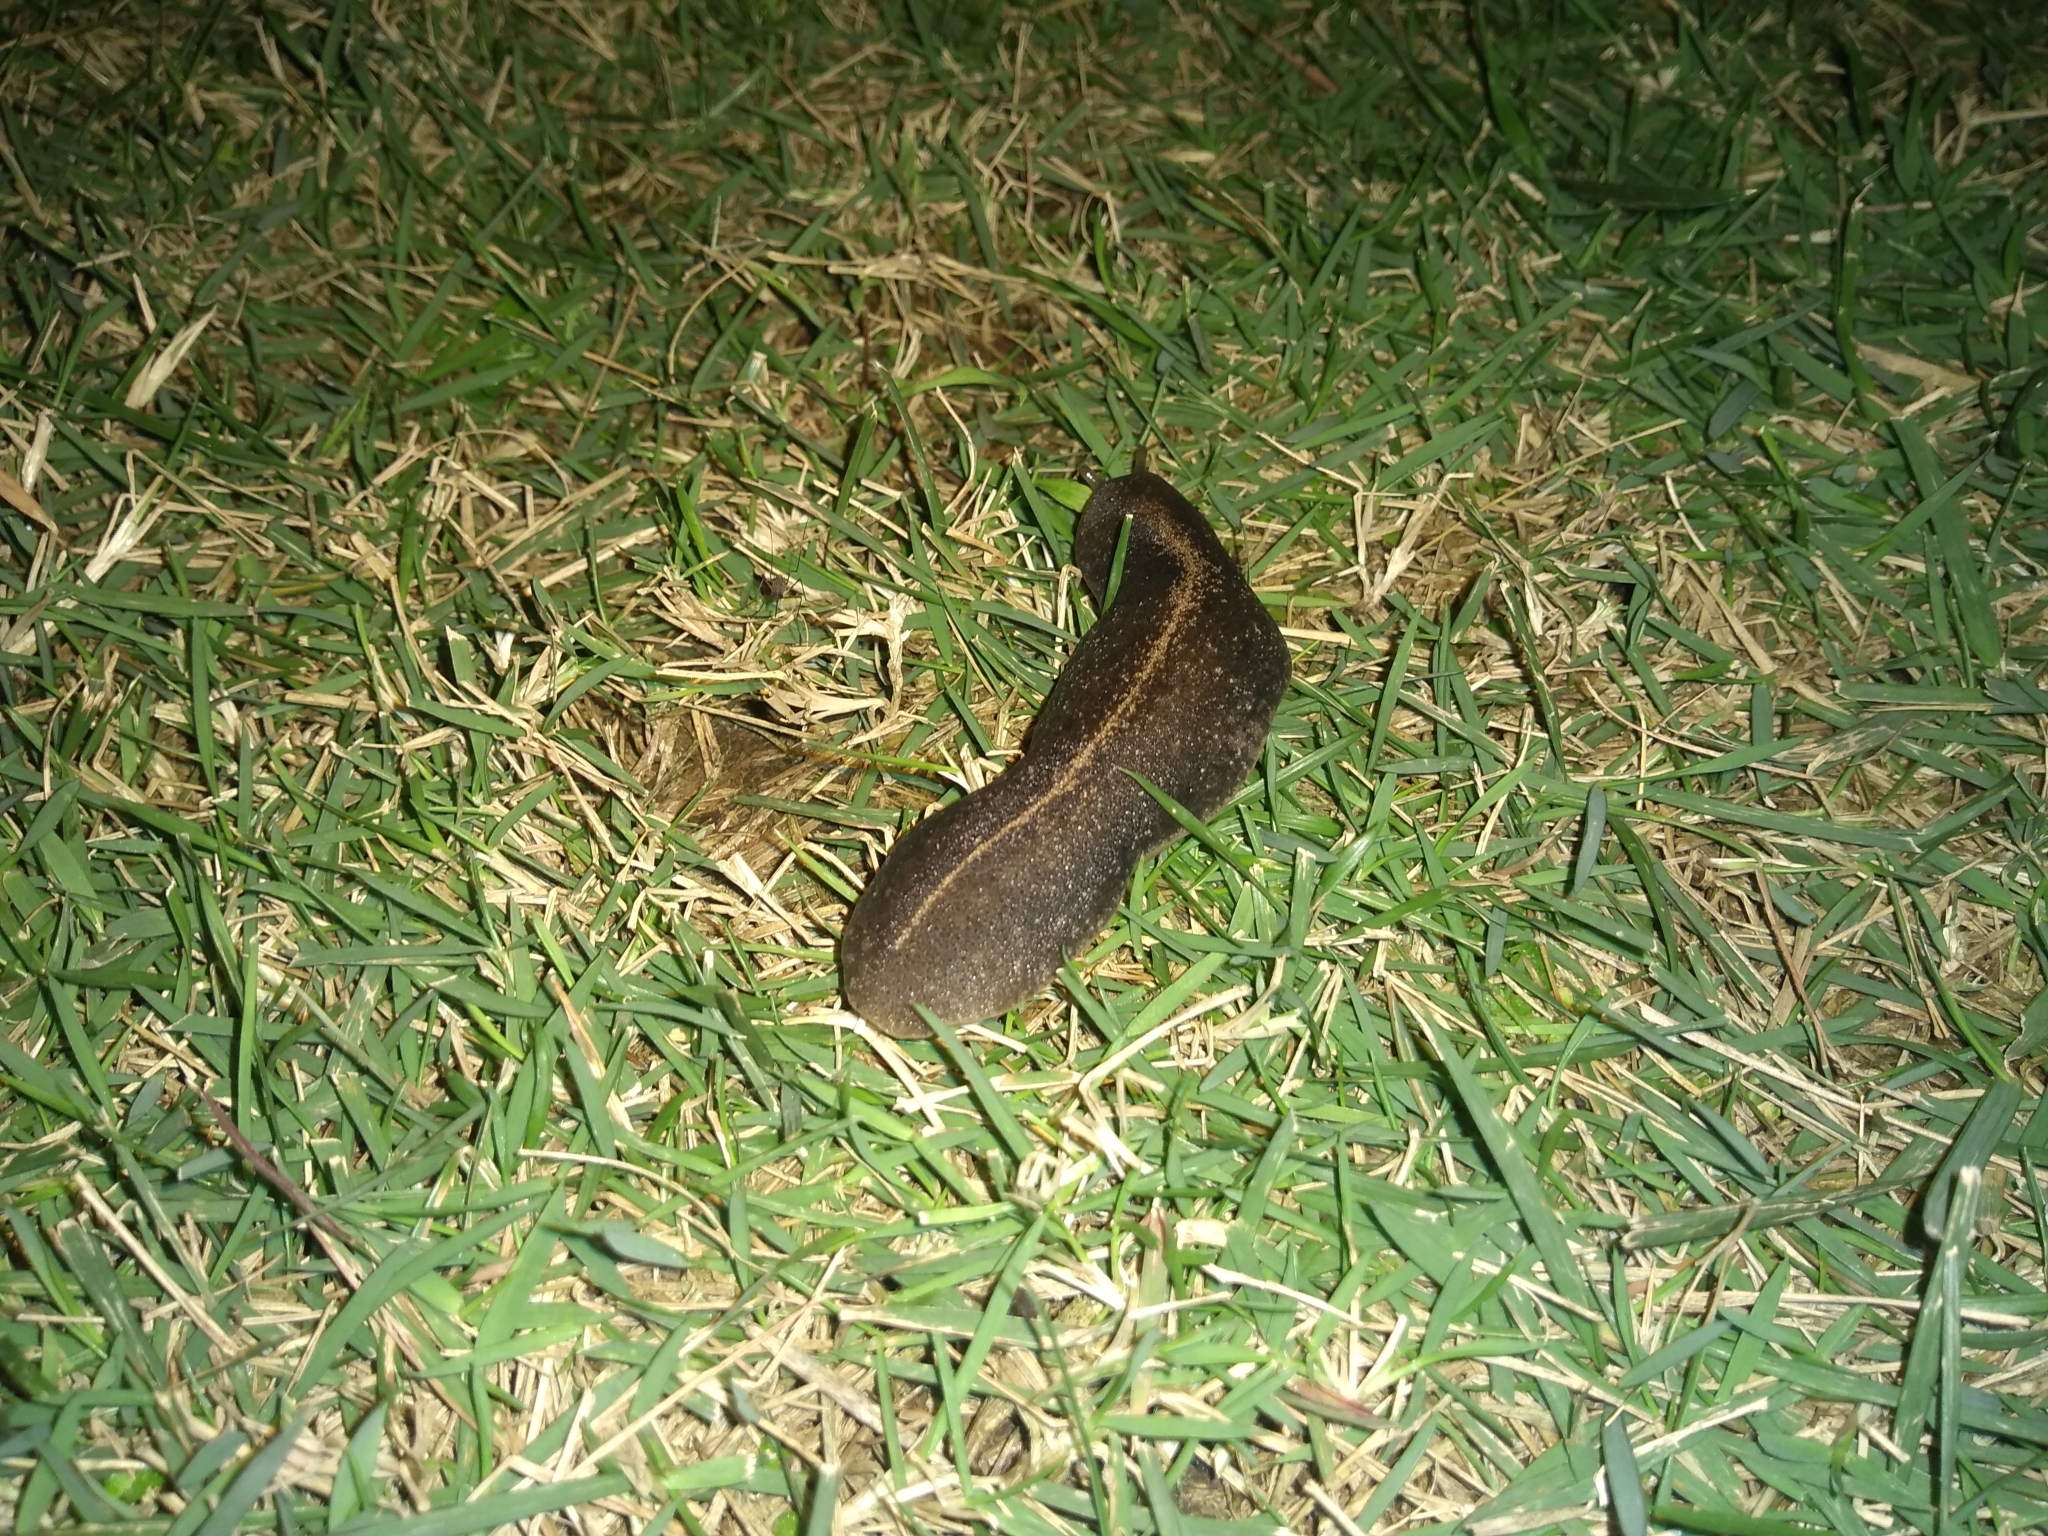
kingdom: Animalia
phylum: Mollusca
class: Gastropoda
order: Systellommatophora
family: Veronicellidae
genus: Laevicaulis
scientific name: Laevicaulis alte
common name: Tropical leatherleaf
